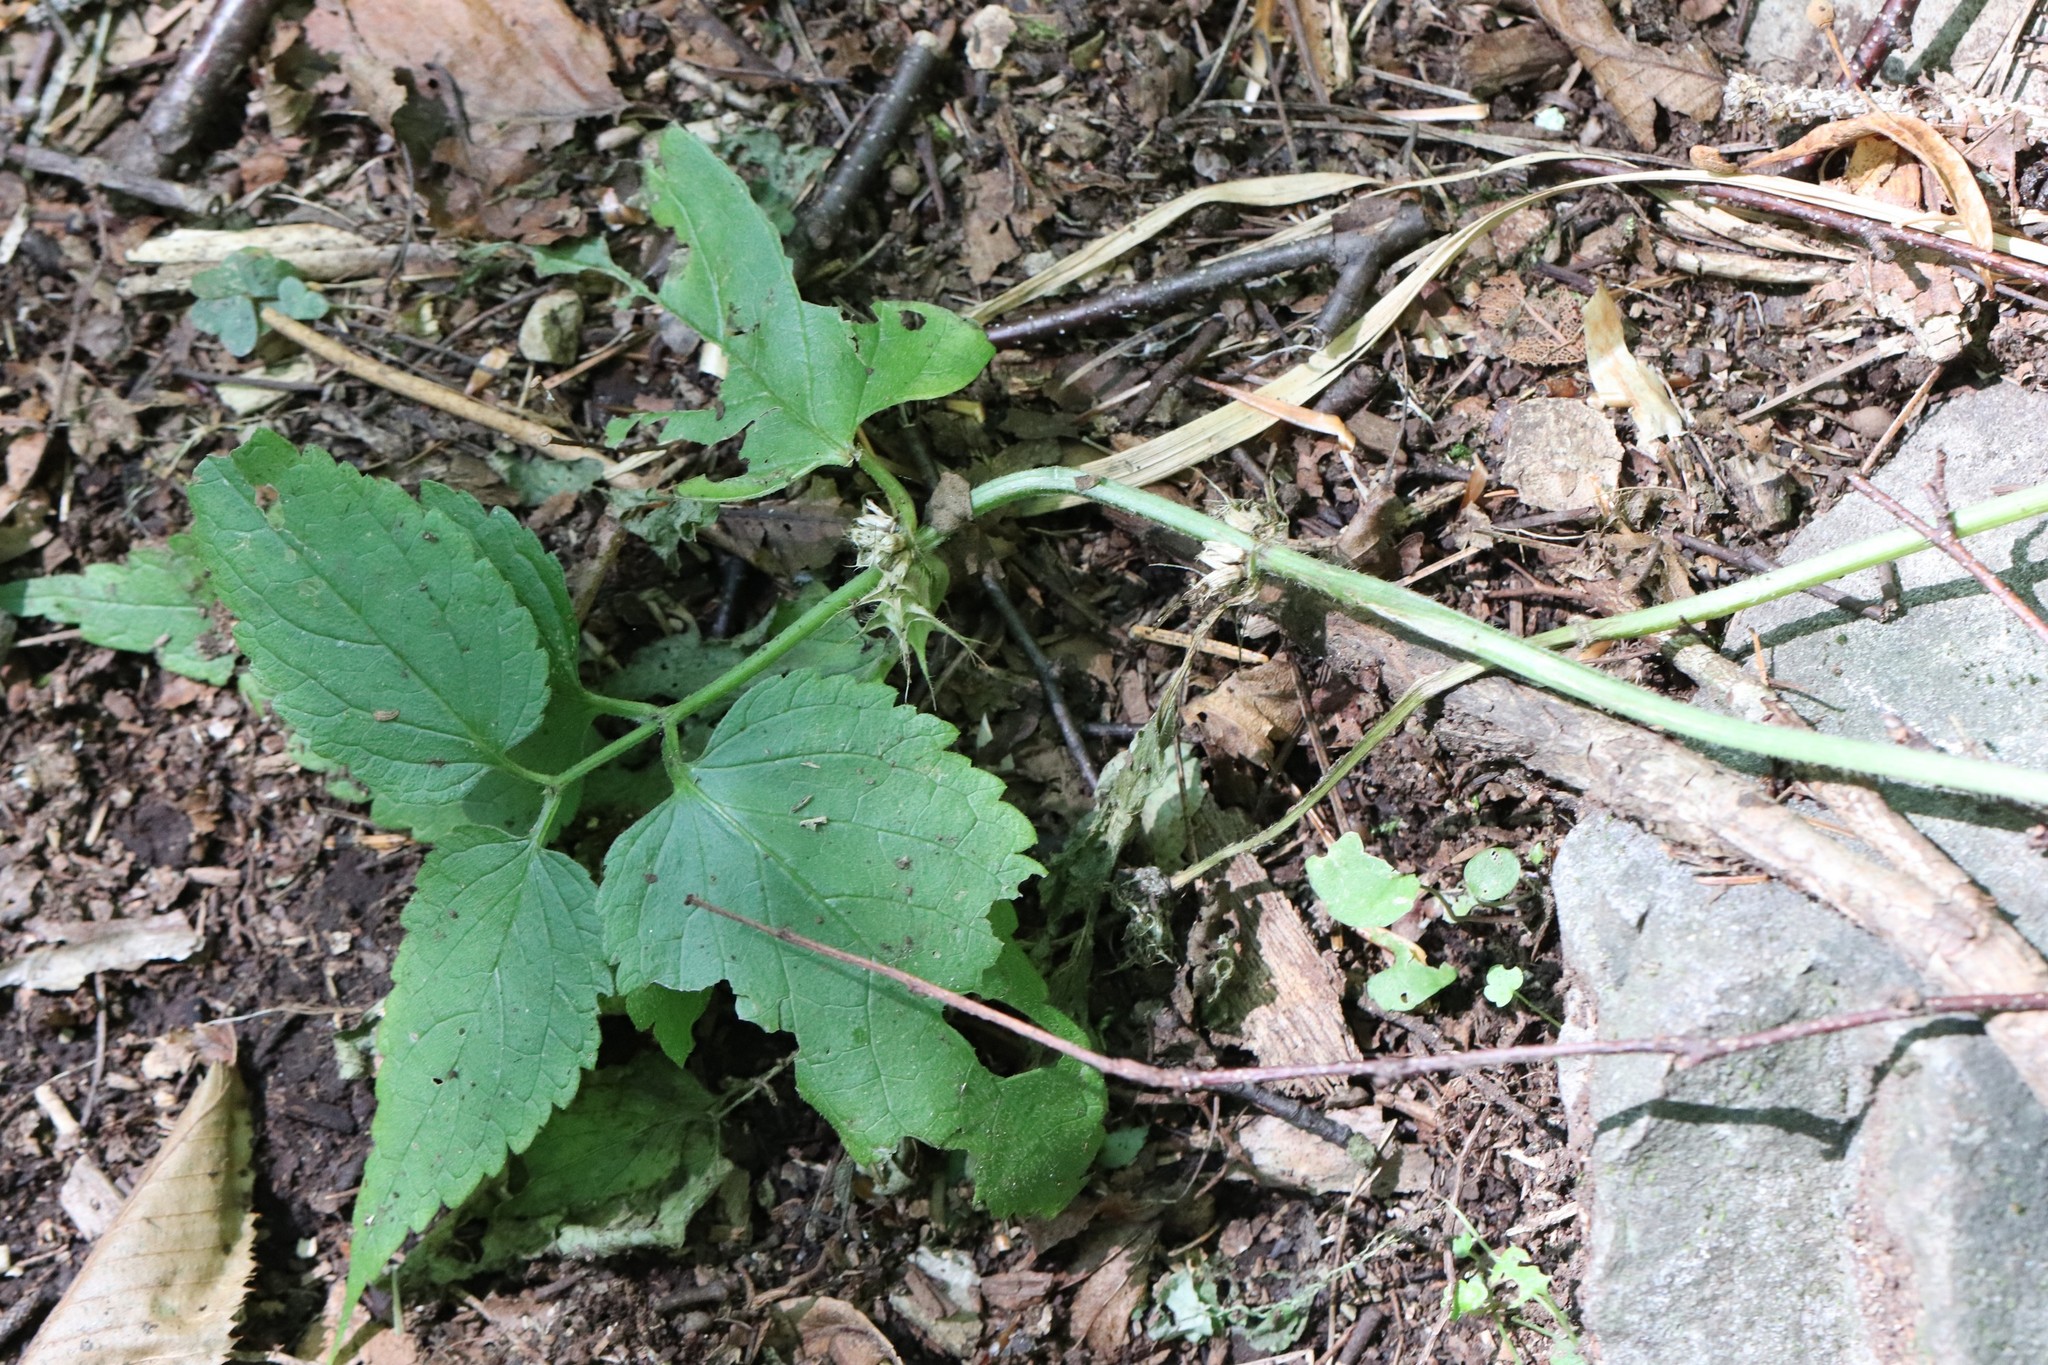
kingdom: Plantae
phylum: Tracheophyta
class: Magnoliopsida
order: Lamiales
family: Lamiaceae
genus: Lamium
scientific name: Lamium album
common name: White dead-nettle
